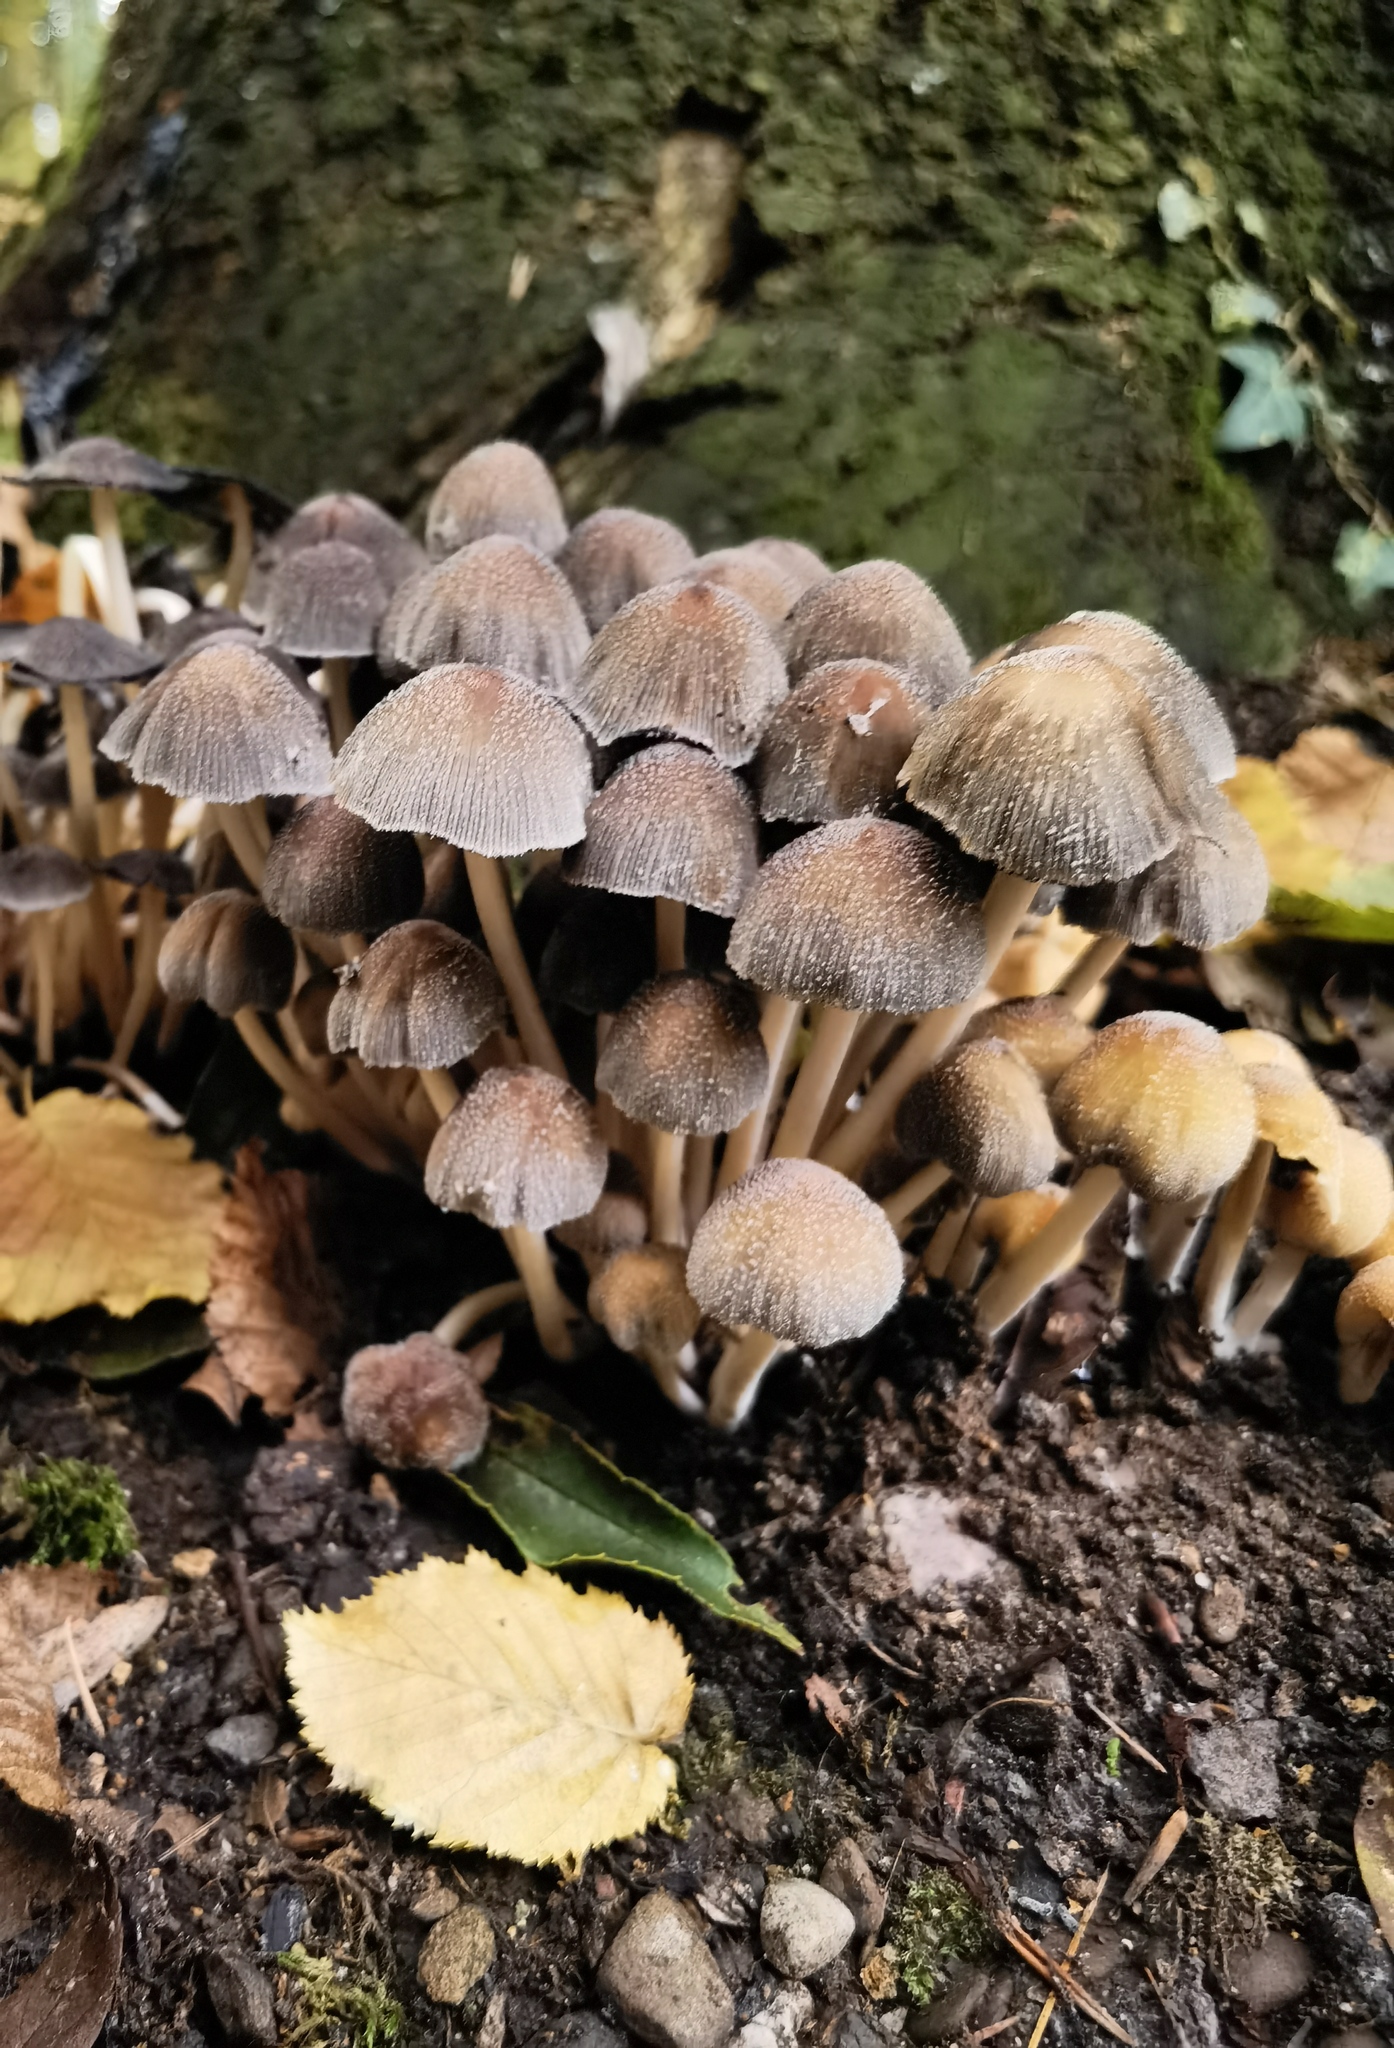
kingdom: Fungi
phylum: Basidiomycota
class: Agaricomycetes
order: Agaricales
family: Psathyrellaceae
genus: Coprinellus
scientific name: Coprinellus micaceus
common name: Glistening ink-cap
